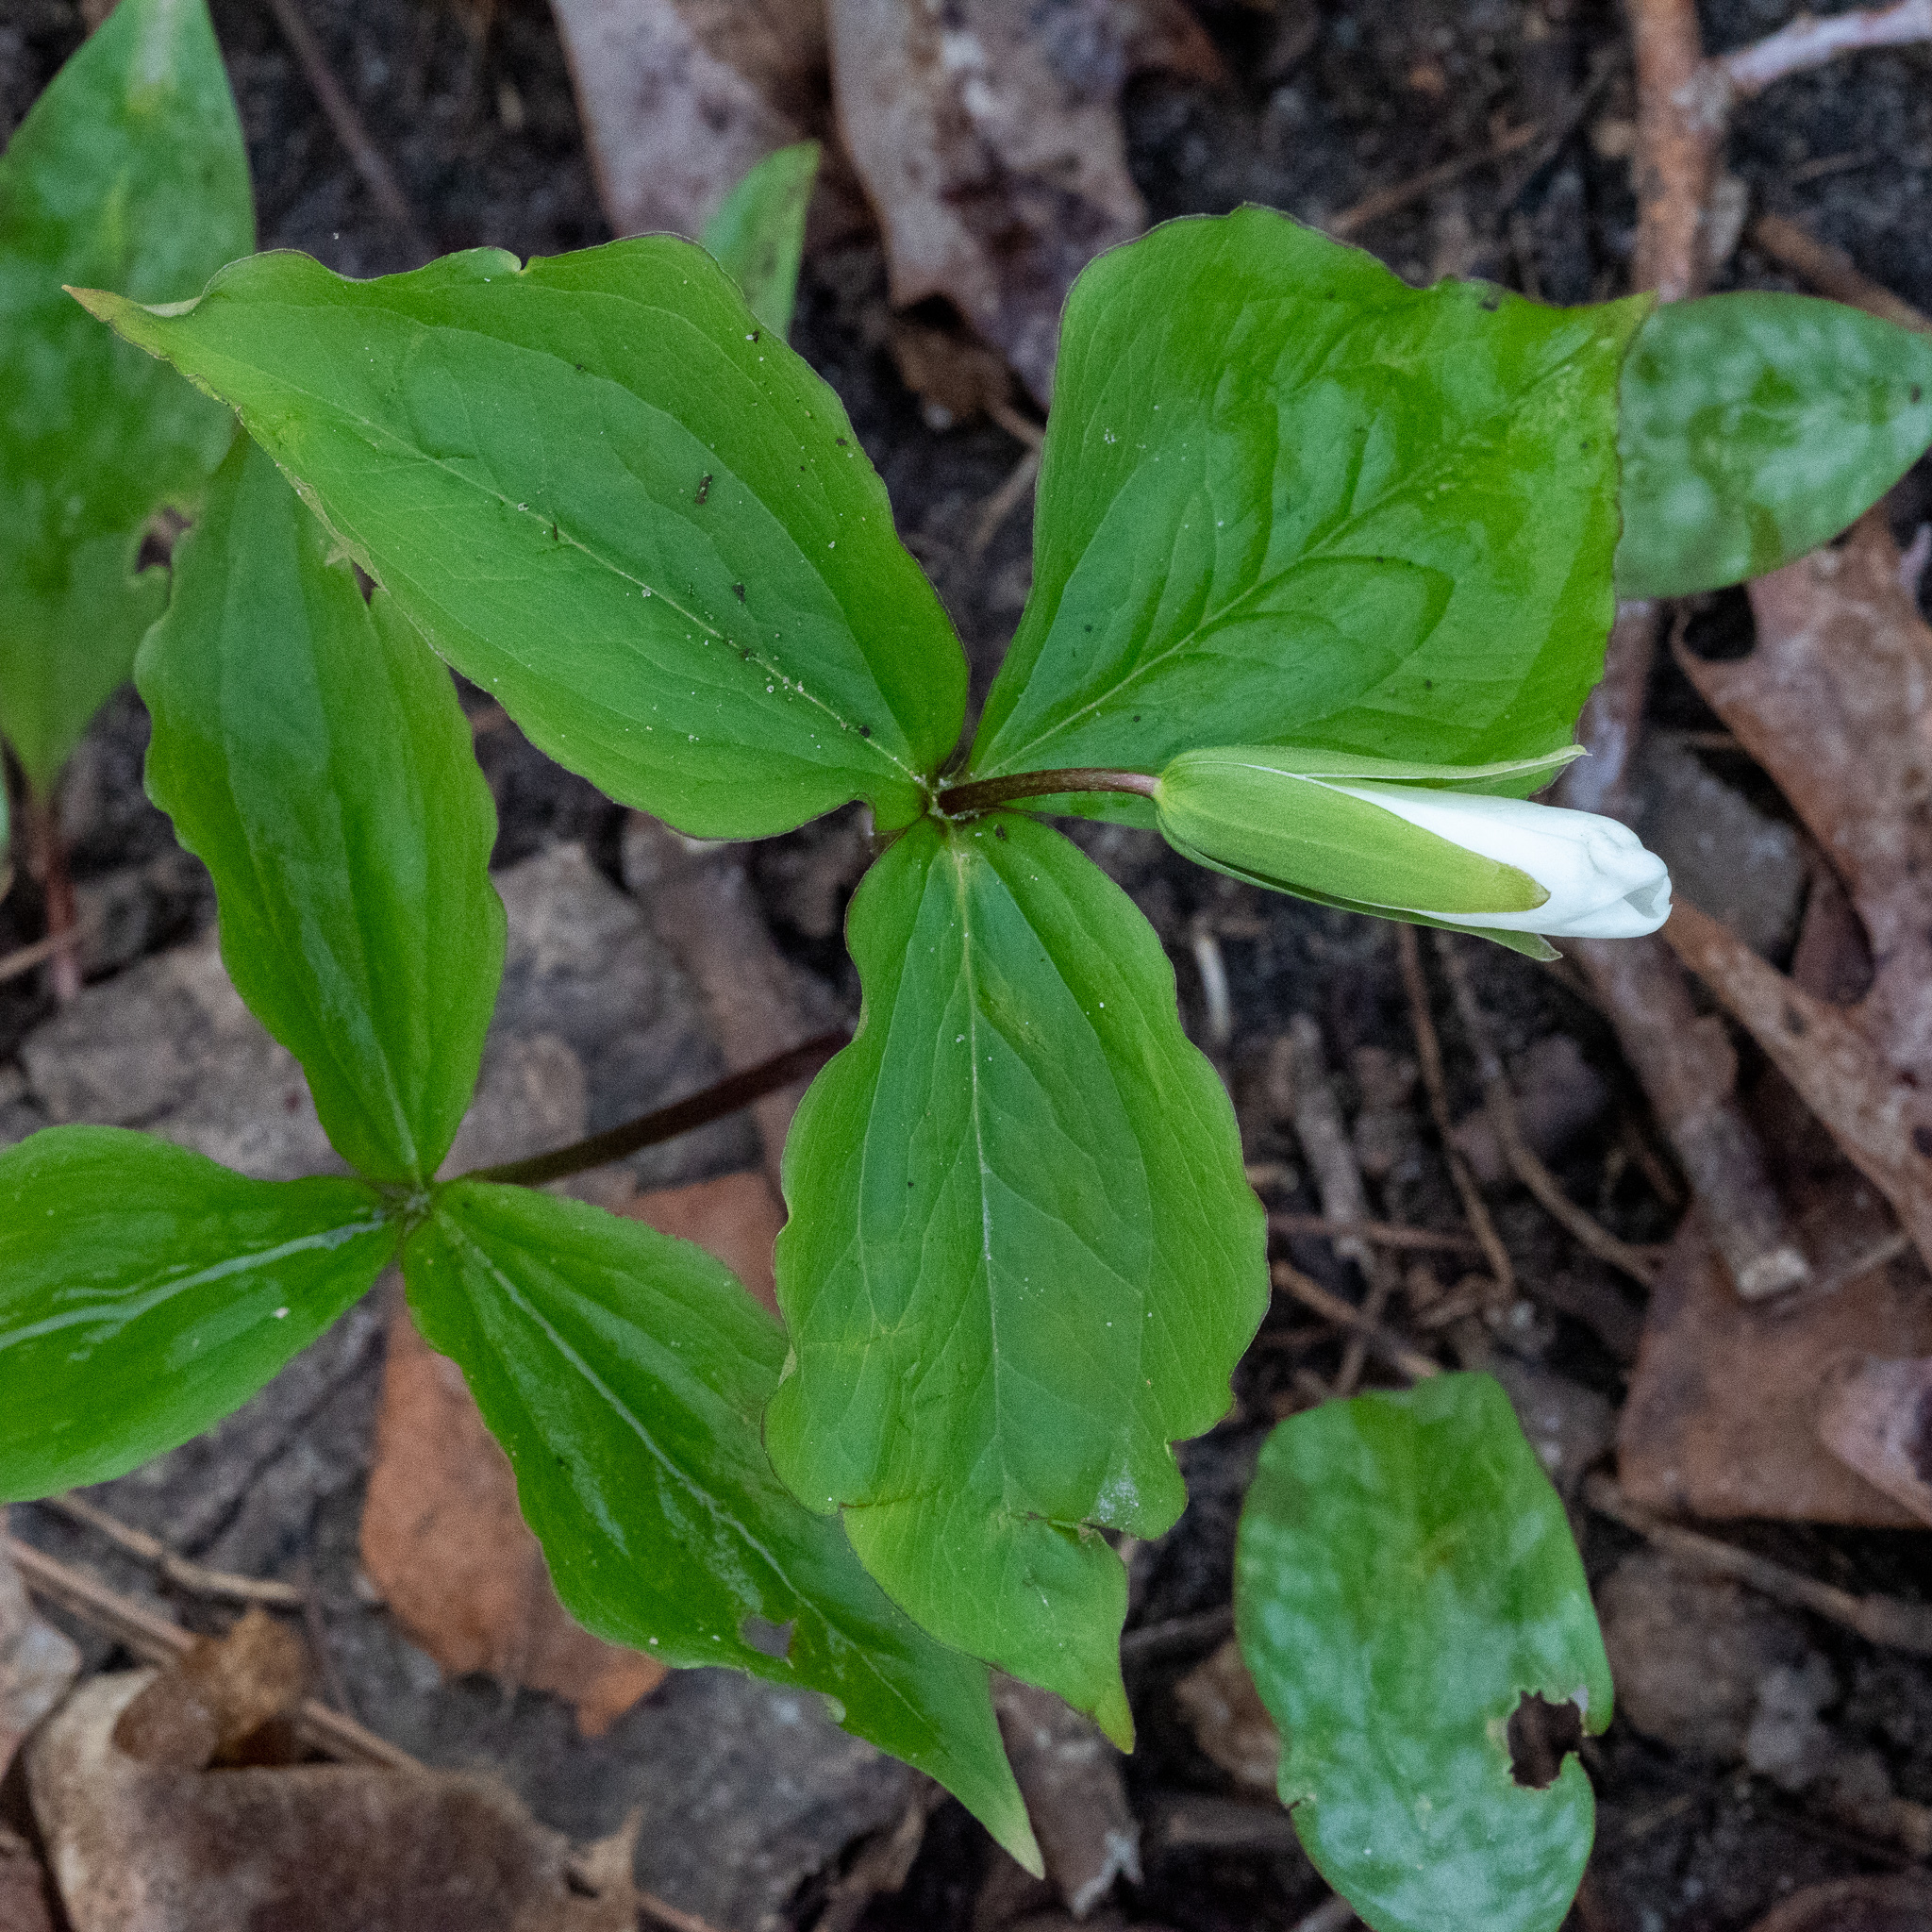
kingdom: Plantae
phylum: Tracheophyta
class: Liliopsida
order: Liliales
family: Melanthiaceae
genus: Trillium
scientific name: Trillium grandiflorum
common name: Great white trillium
